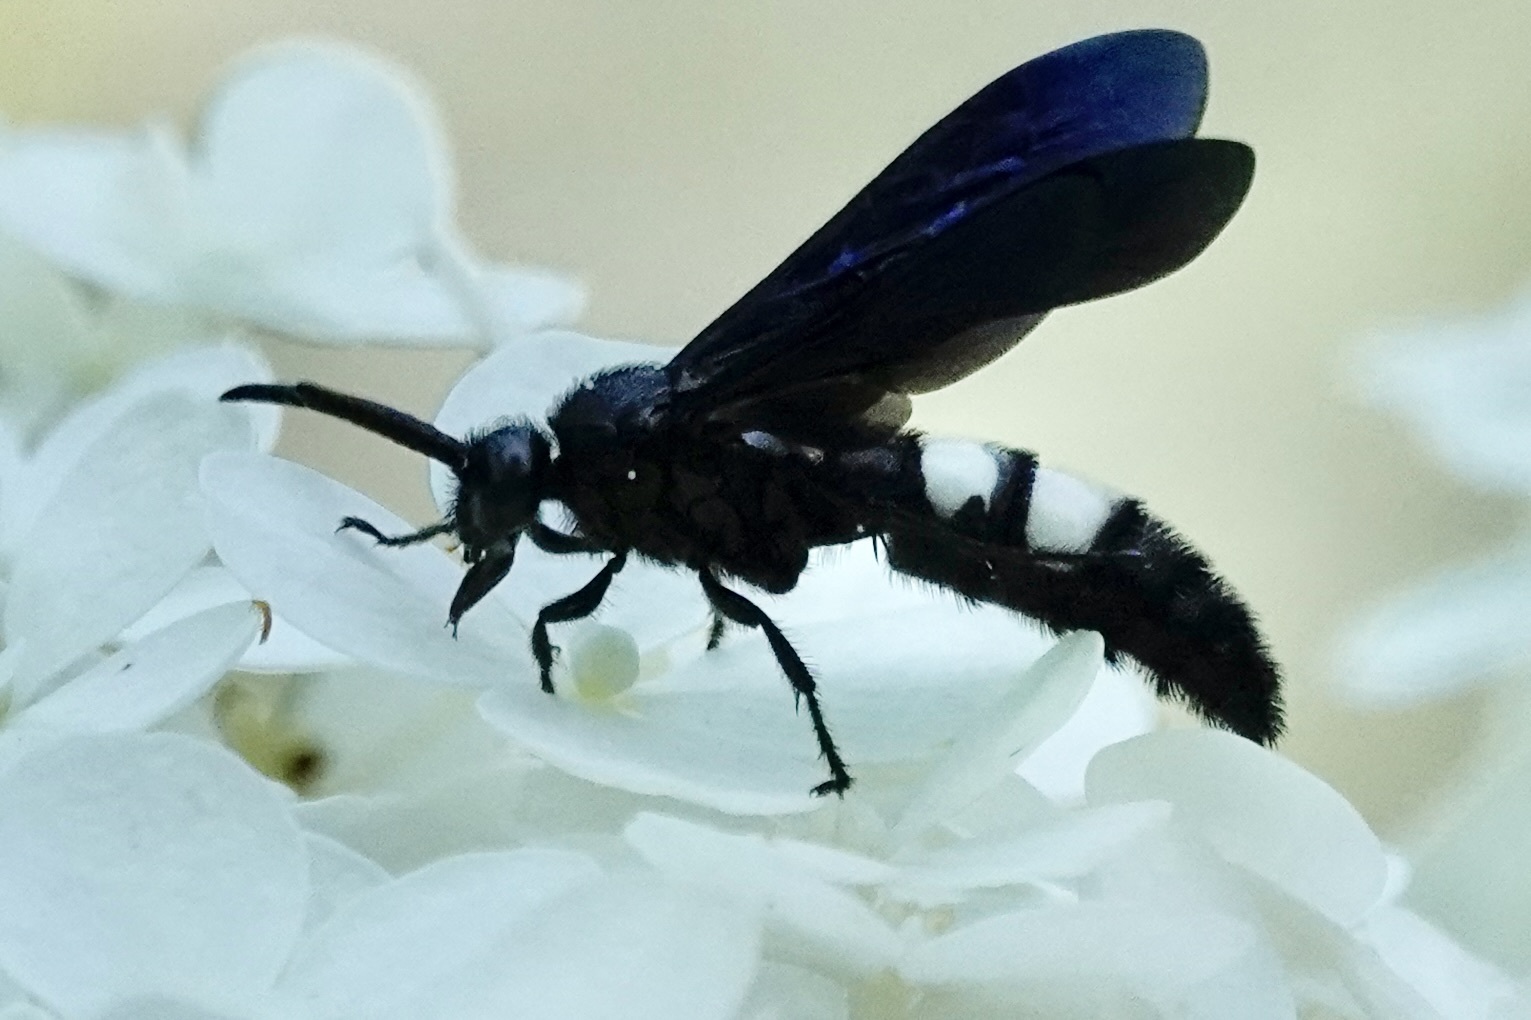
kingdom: Animalia
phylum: Arthropoda
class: Insecta
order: Hymenoptera
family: Scoliidae
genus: Scolia
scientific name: Scolia bicincta
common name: Double-banded scoliid wasp
